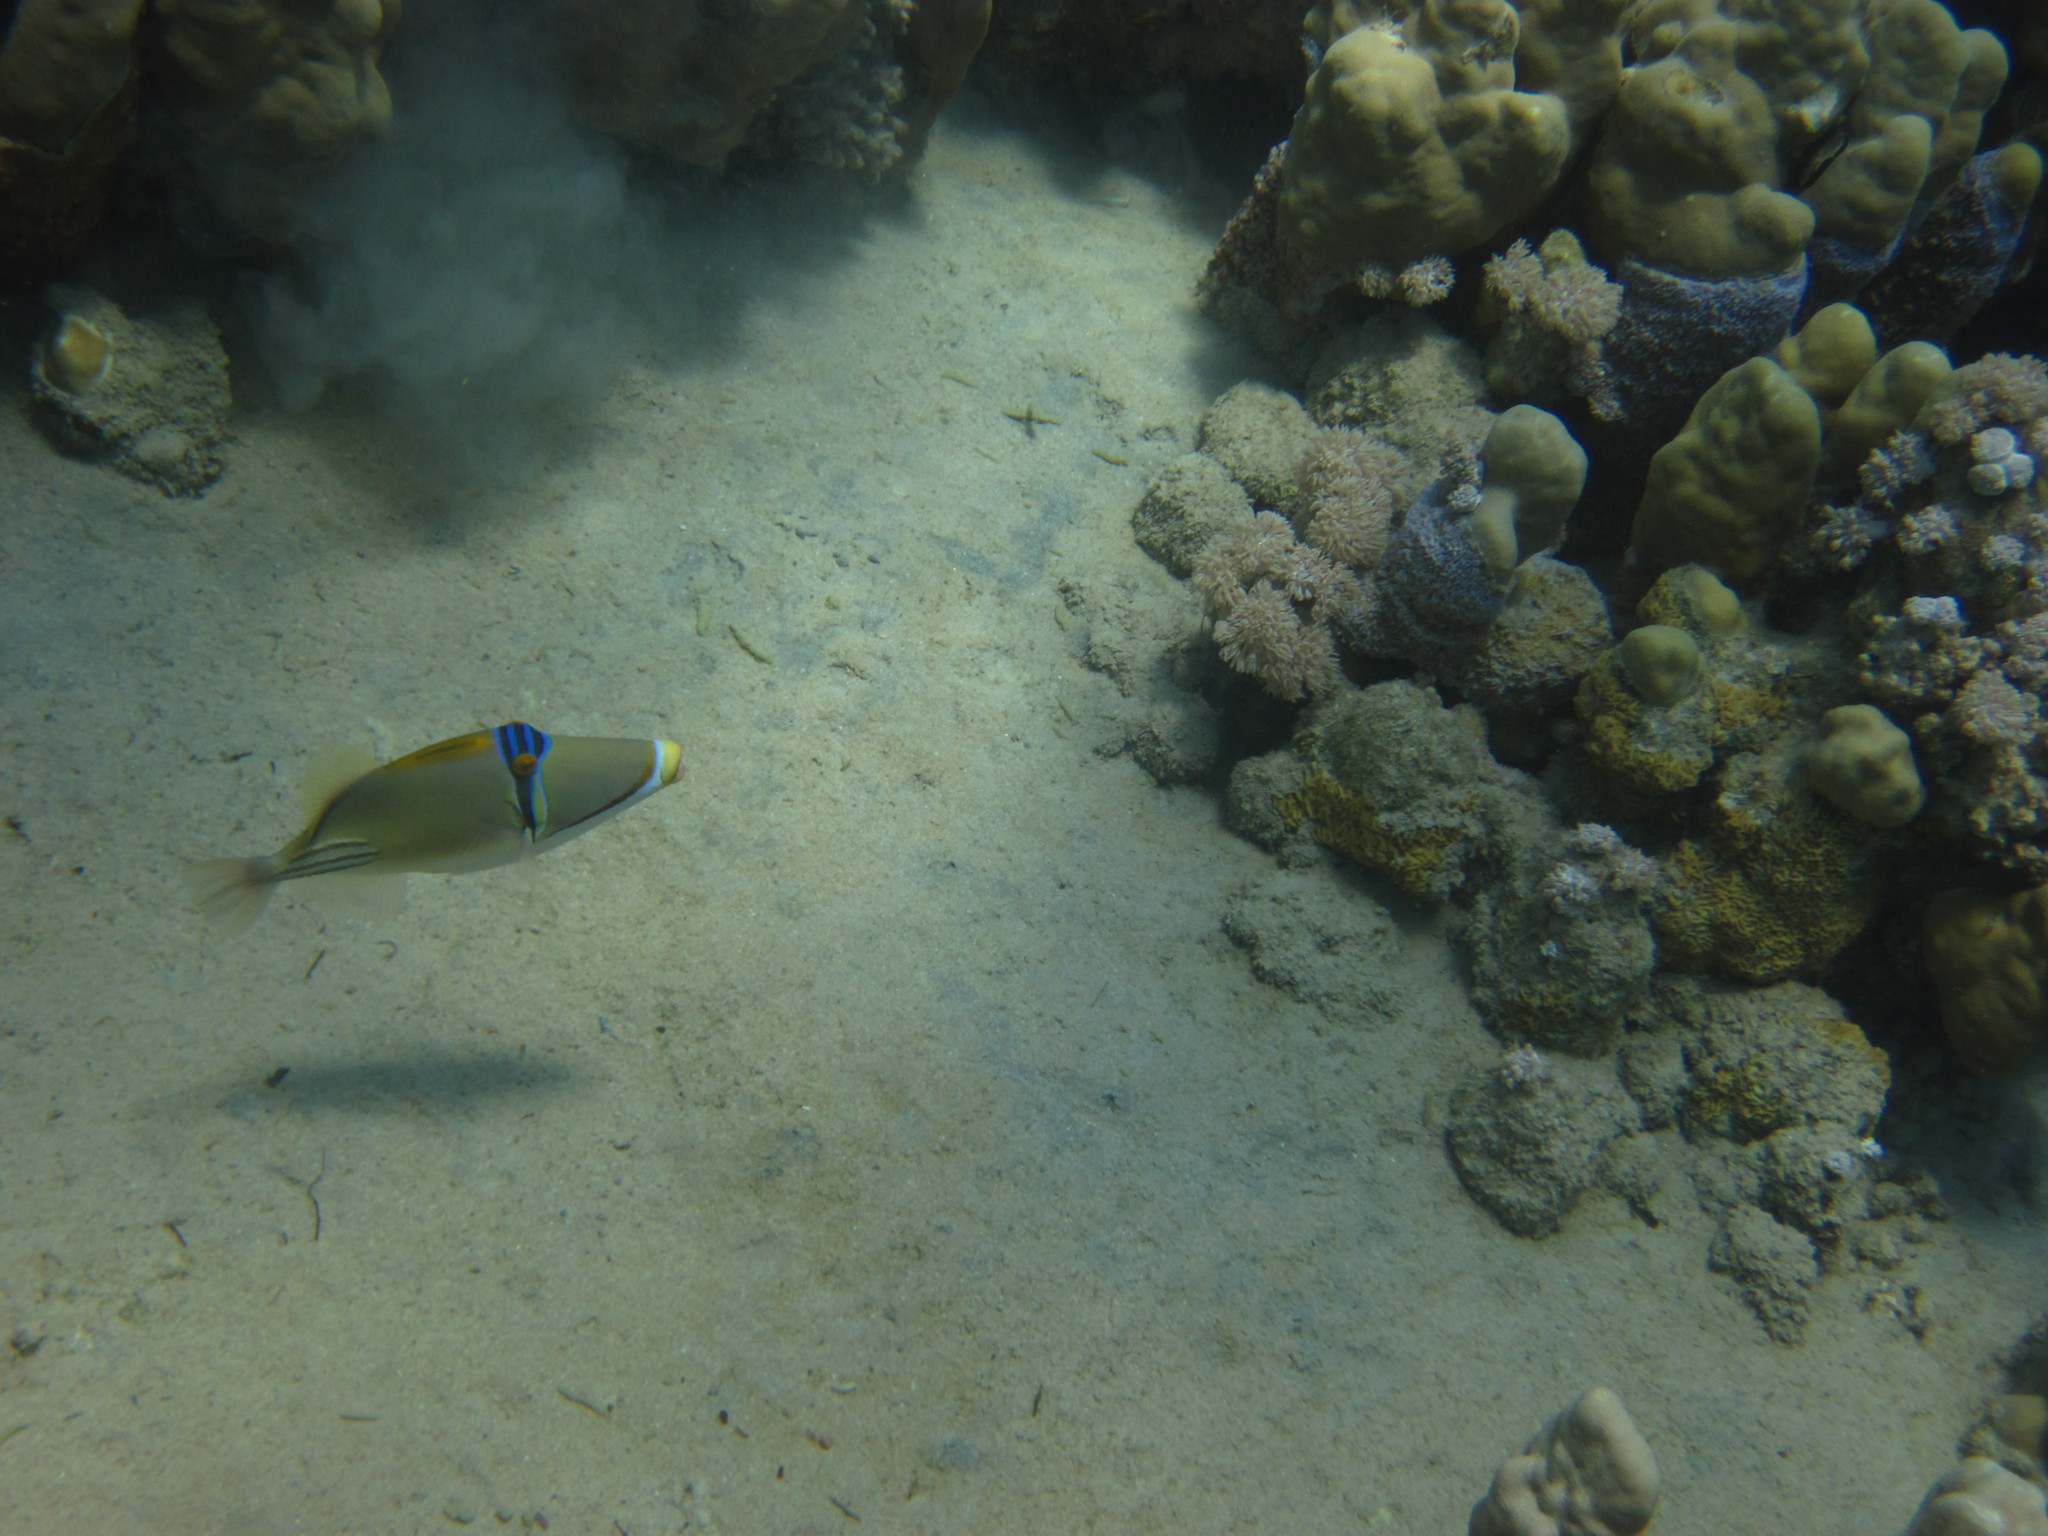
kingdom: Animalia
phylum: Chordata
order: Tetraodontiformes
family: Balistidae
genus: Rhinecanthus
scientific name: Rhinecanthus assasi
